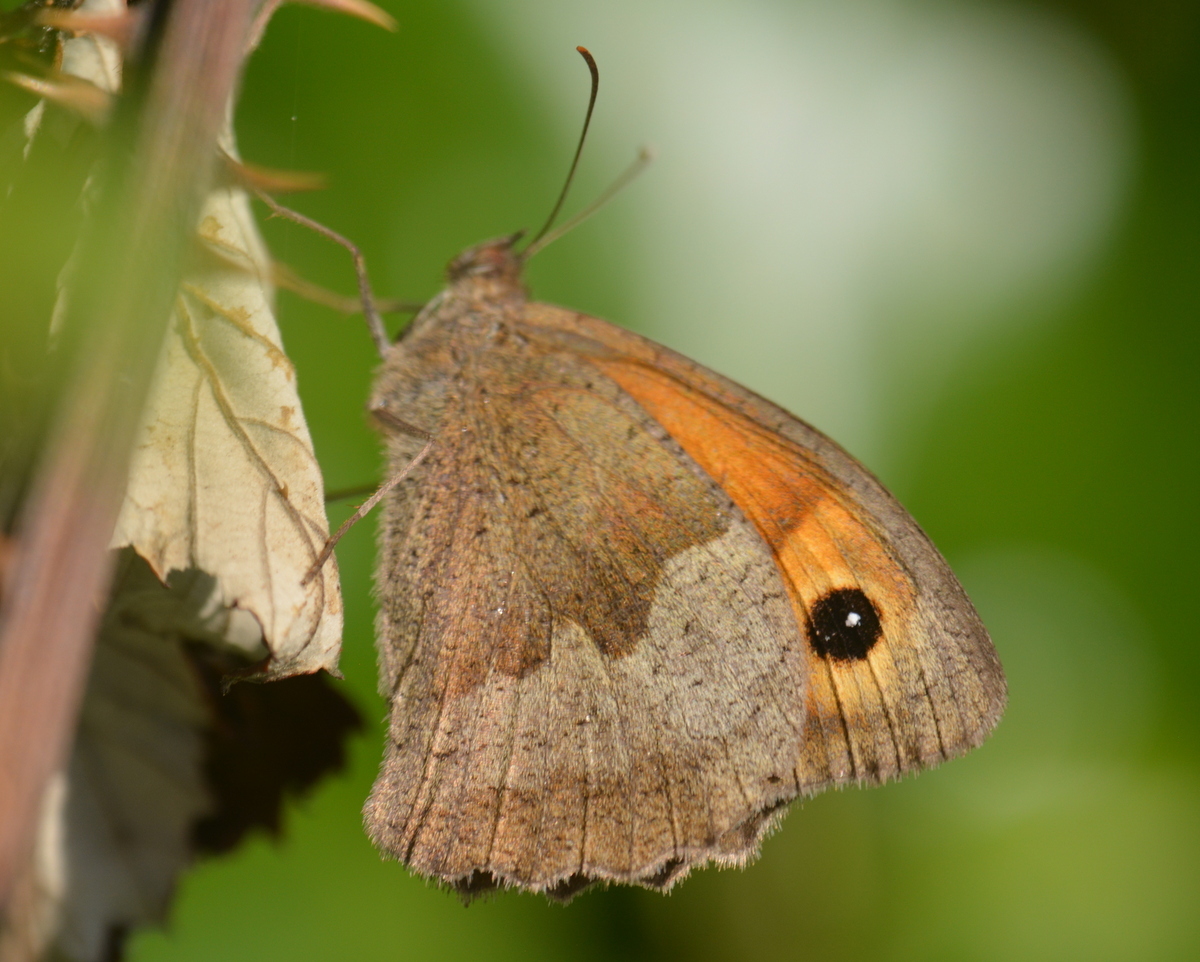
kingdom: Animalia
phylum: Arthropoda
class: Insecta
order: Lepidoptera
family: Nymphalidae
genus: Maniola
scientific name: Maniola jurtina
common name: Meadow brown
